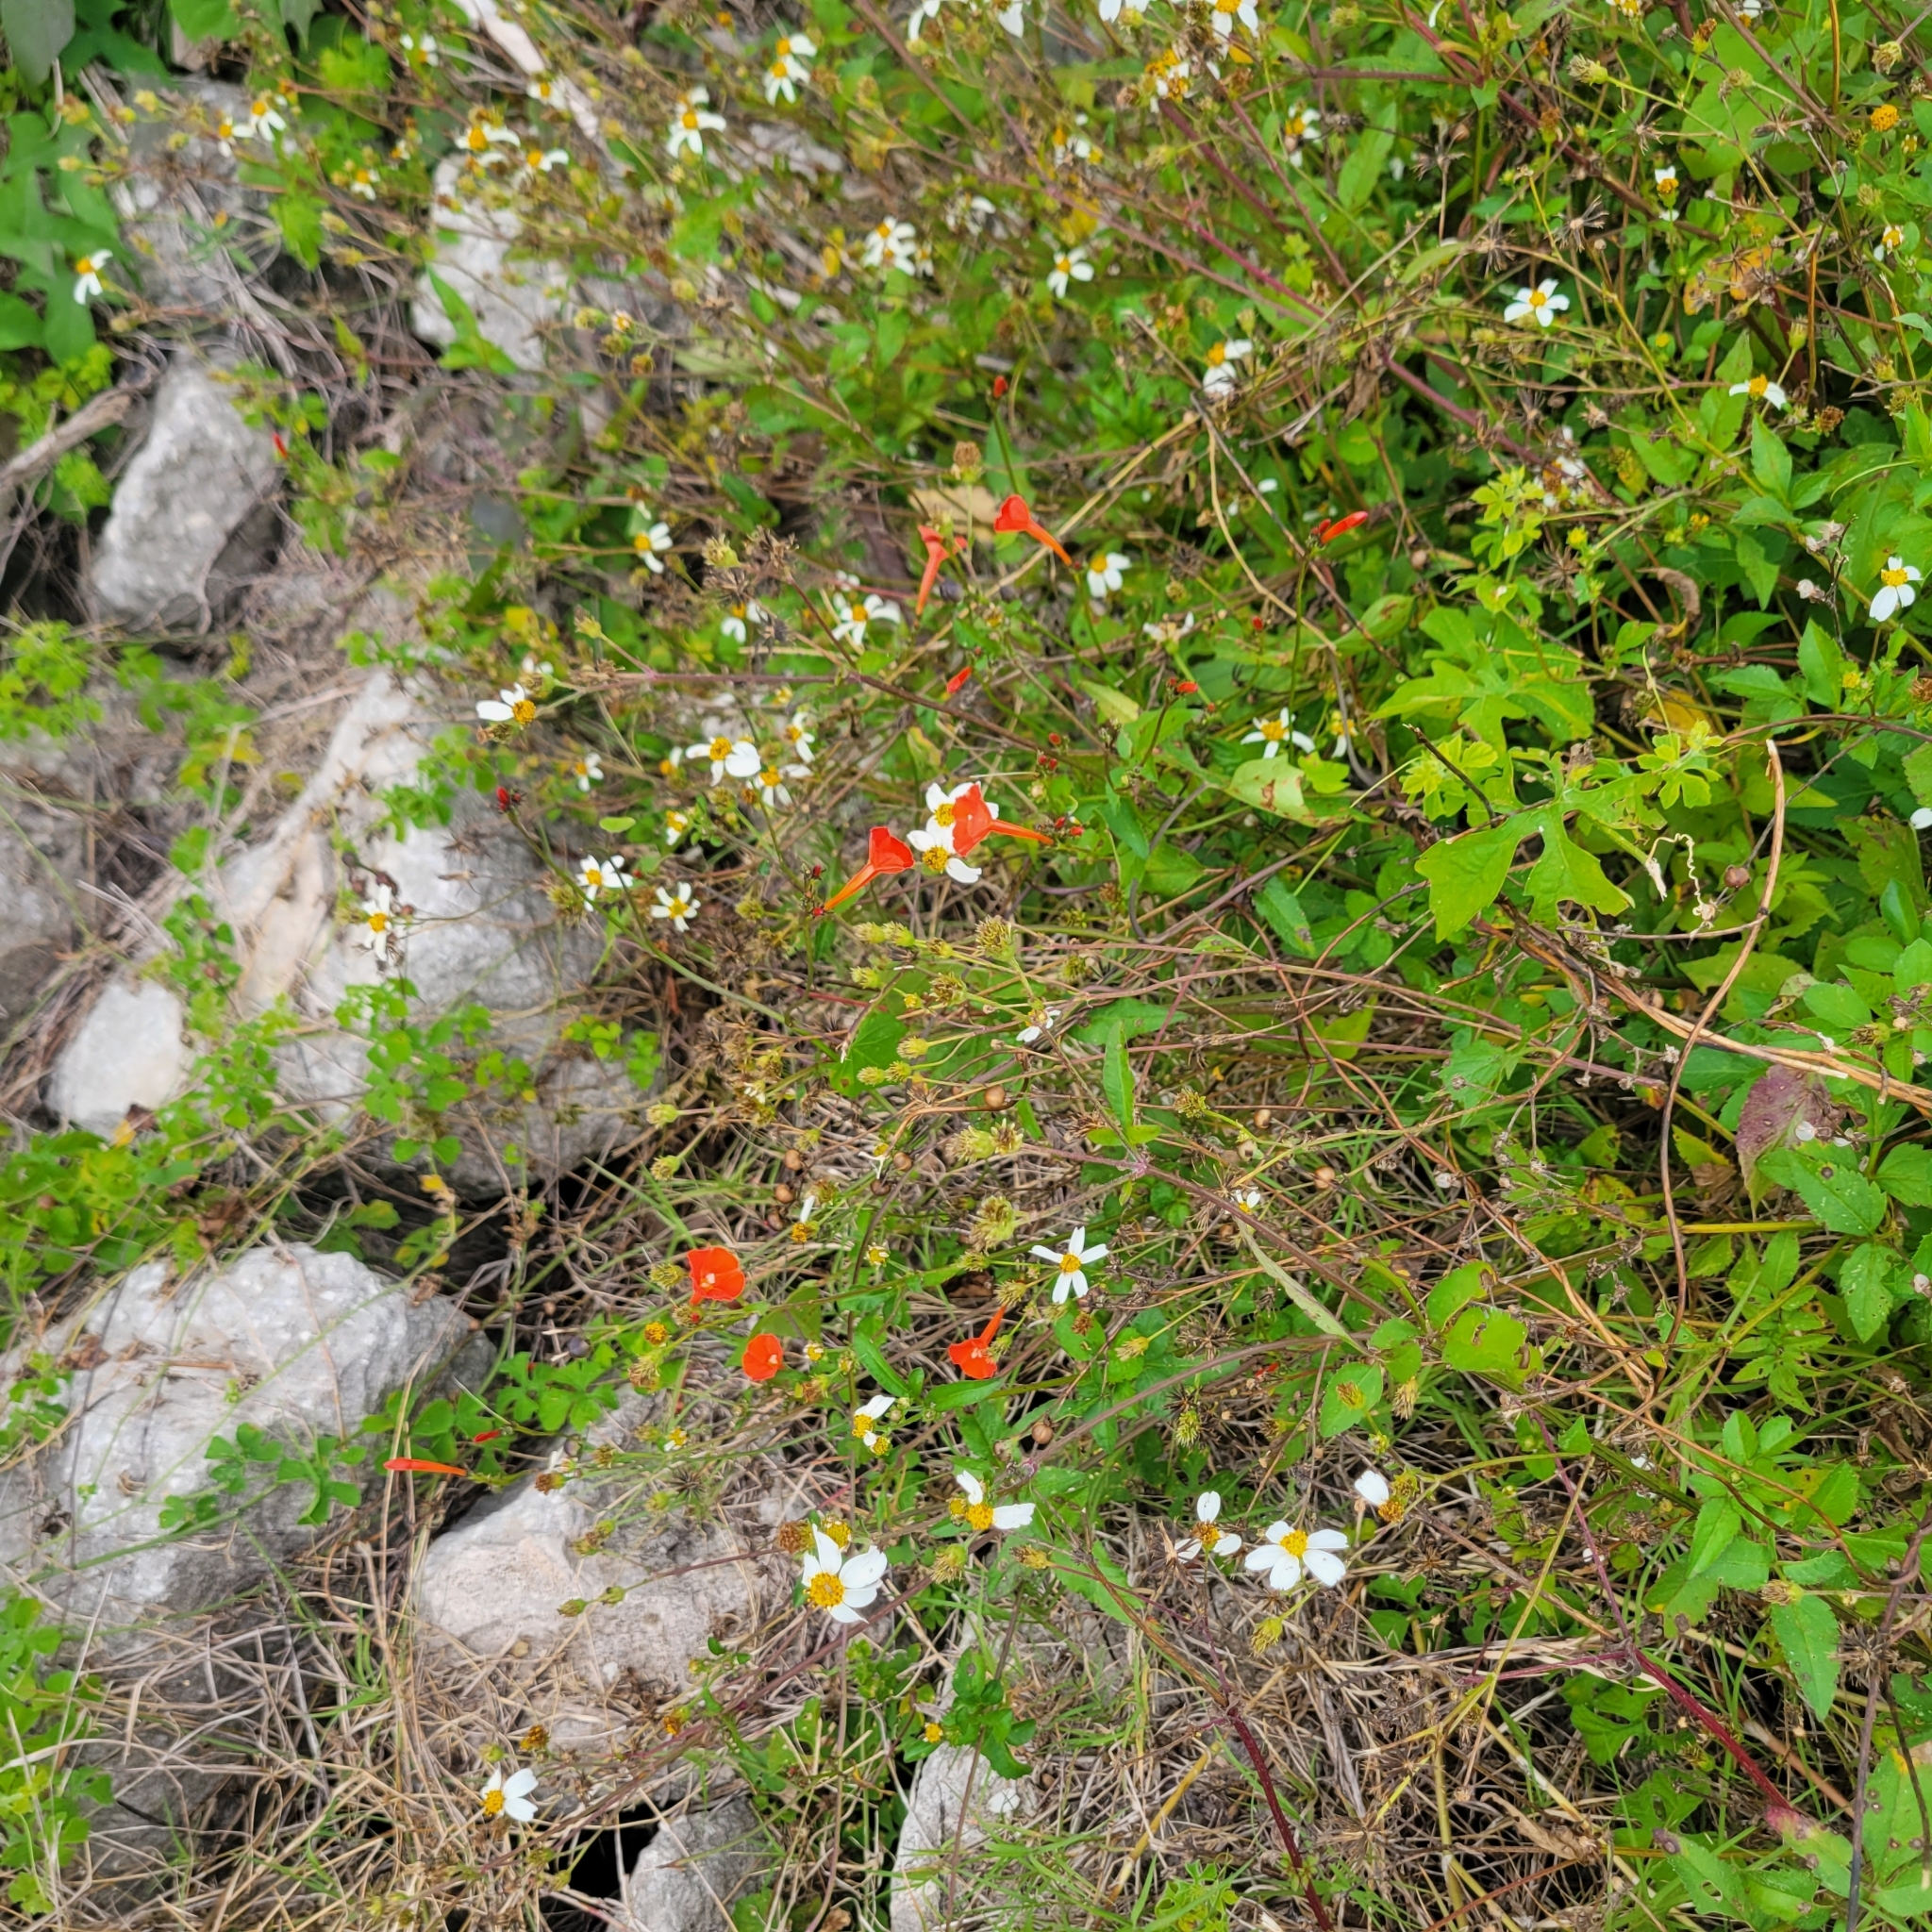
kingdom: Plantae
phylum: Tracheophyta
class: Magnoliopsida
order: Solanales
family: Convolvulaceae
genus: Ipomoea
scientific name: Ipomoea hederifolia
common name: Ivy-leaf morning-glory
